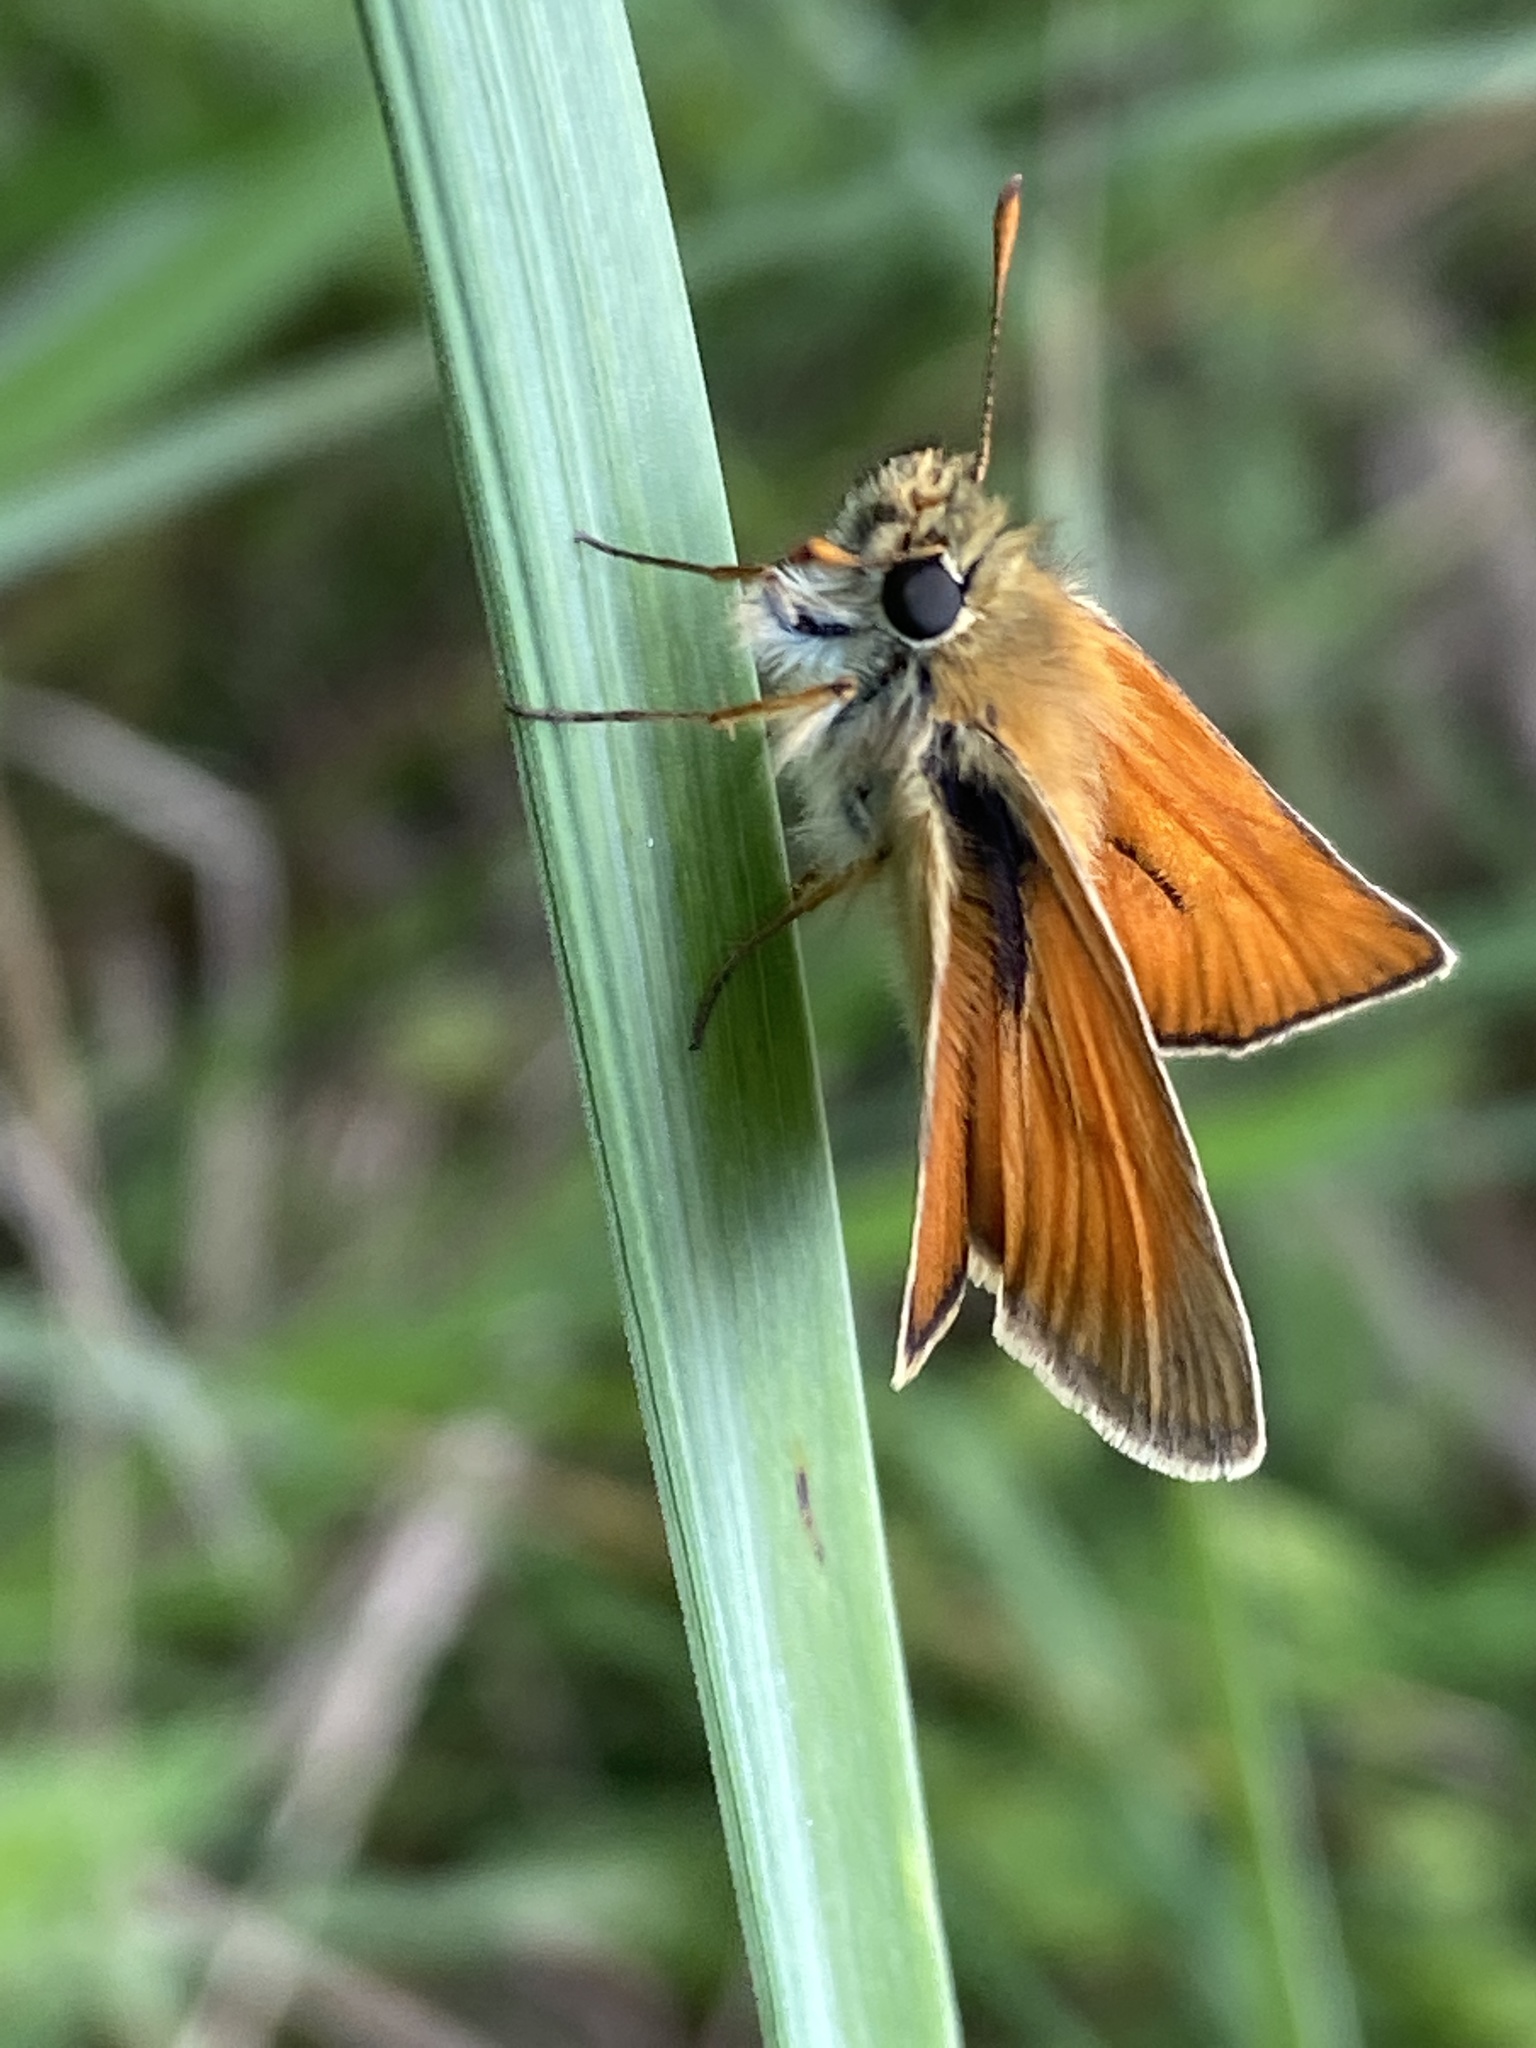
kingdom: Animalia
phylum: Arthropoda
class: Insecta
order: Lepidoptera
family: Hesperiidae
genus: Thymelicus
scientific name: Thymelicus sylvestris
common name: Small skipper
